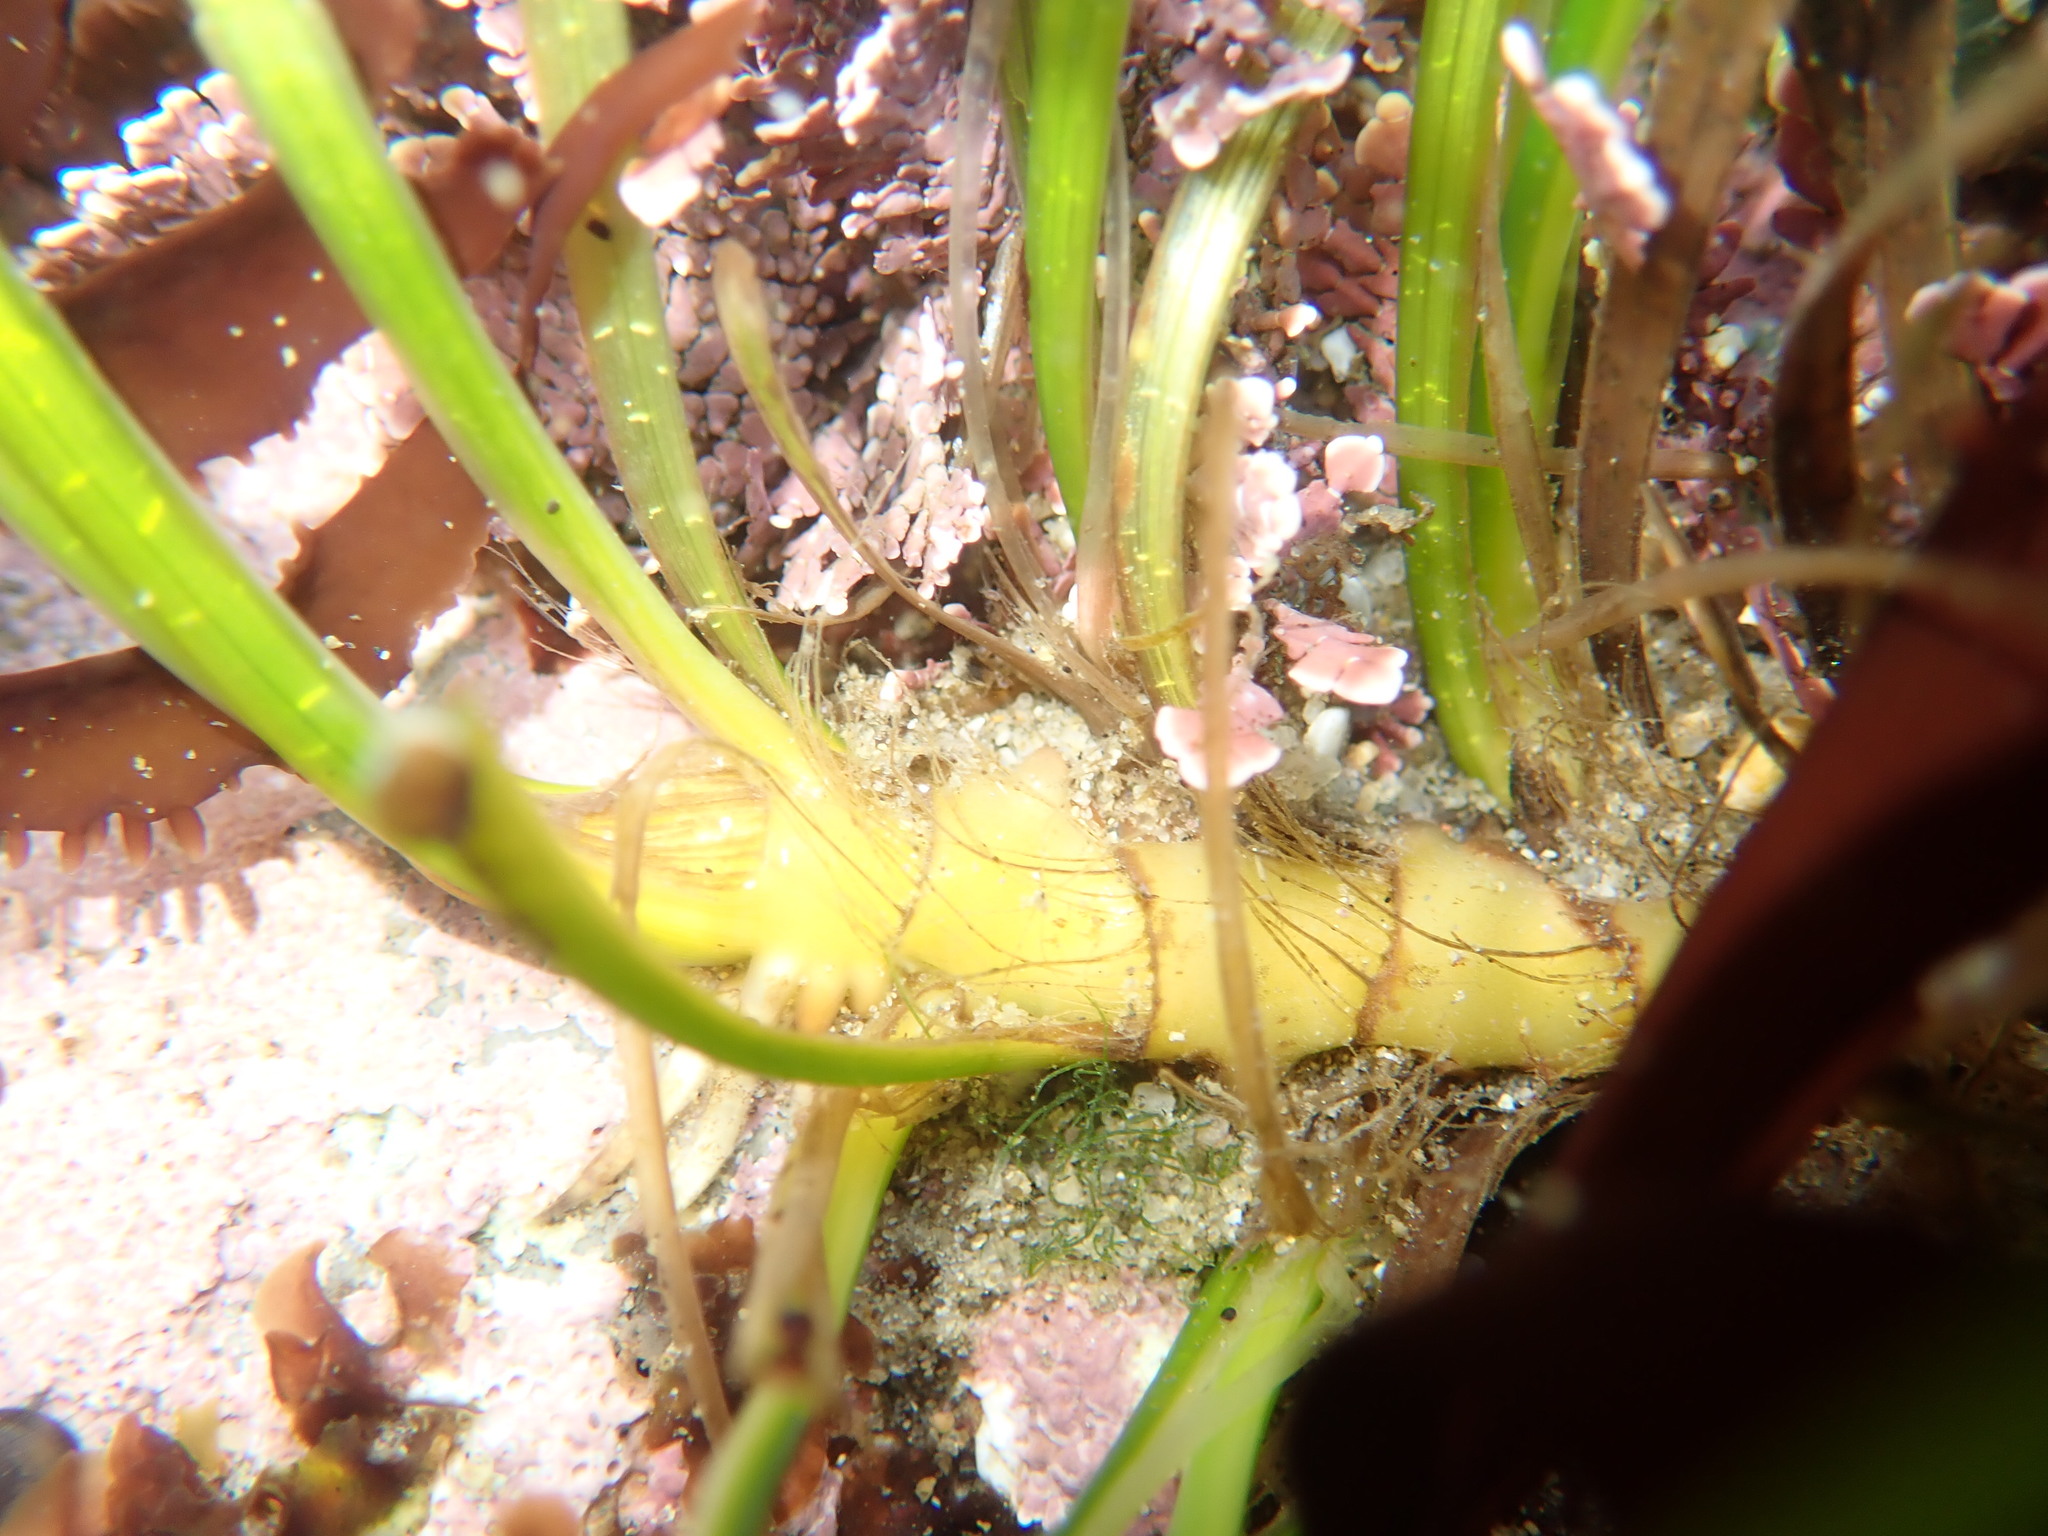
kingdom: Plantae
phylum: Tracheophyta
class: Liliopsida
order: Alismatales
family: Zosteraceae
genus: Phyllospadix
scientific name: Phyllospadix scouleri
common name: Species code: ps
